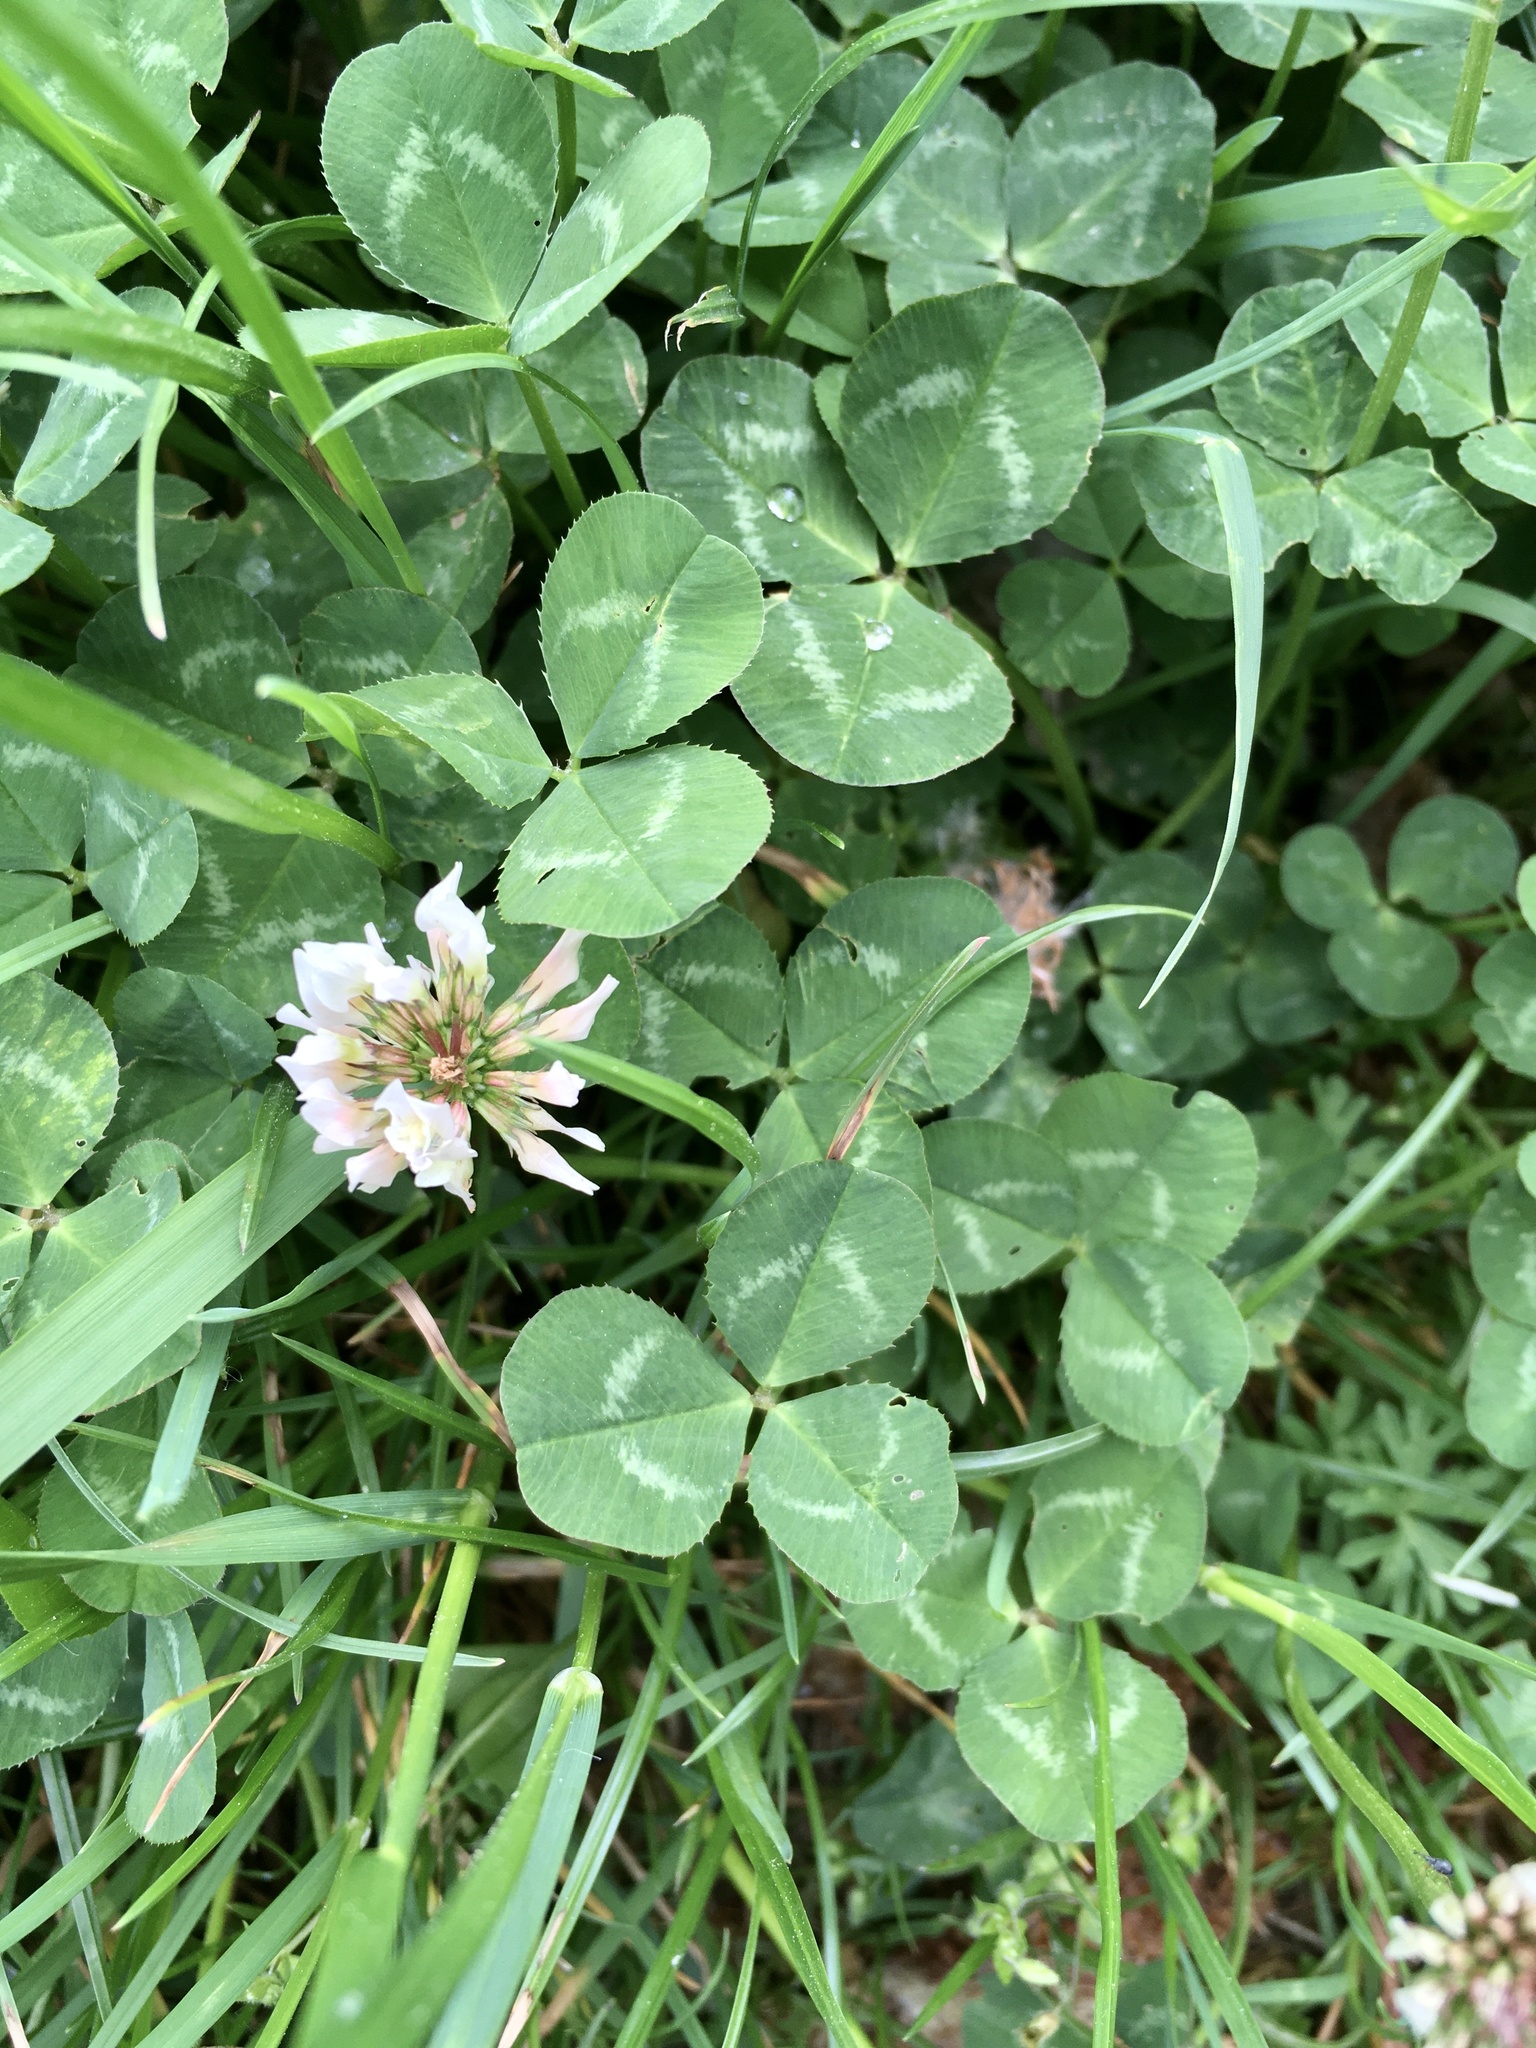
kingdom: Plantae
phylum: Tracheophyta
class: Magnoliopsida
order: Fabales
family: Fabaceae
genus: Trifolium
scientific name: Trifolium repens
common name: White clover
